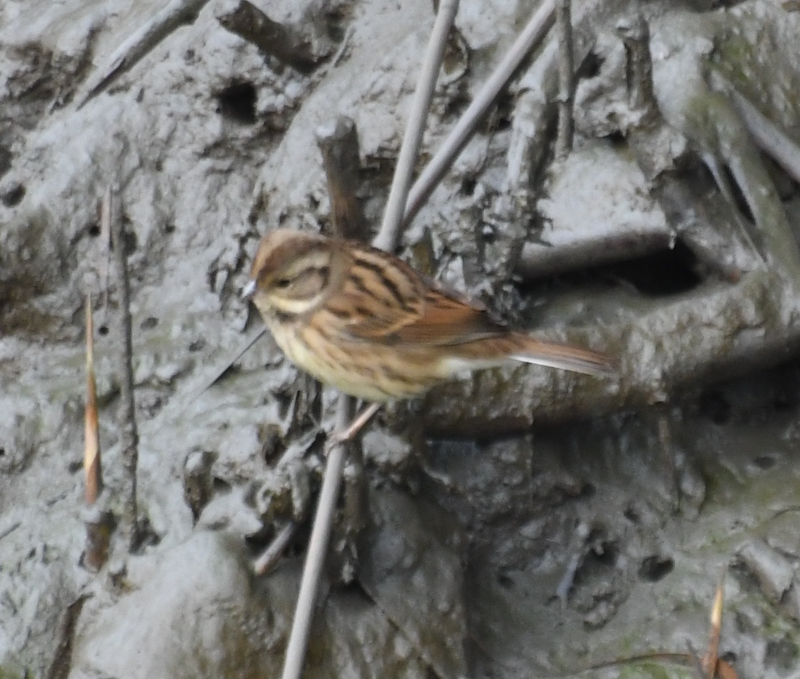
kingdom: Animalia
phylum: Chordata
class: Aves
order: Passeriformes
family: Emberizidae
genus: Emberiza
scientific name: Emberiza spodocephala
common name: Black-faced bunting
